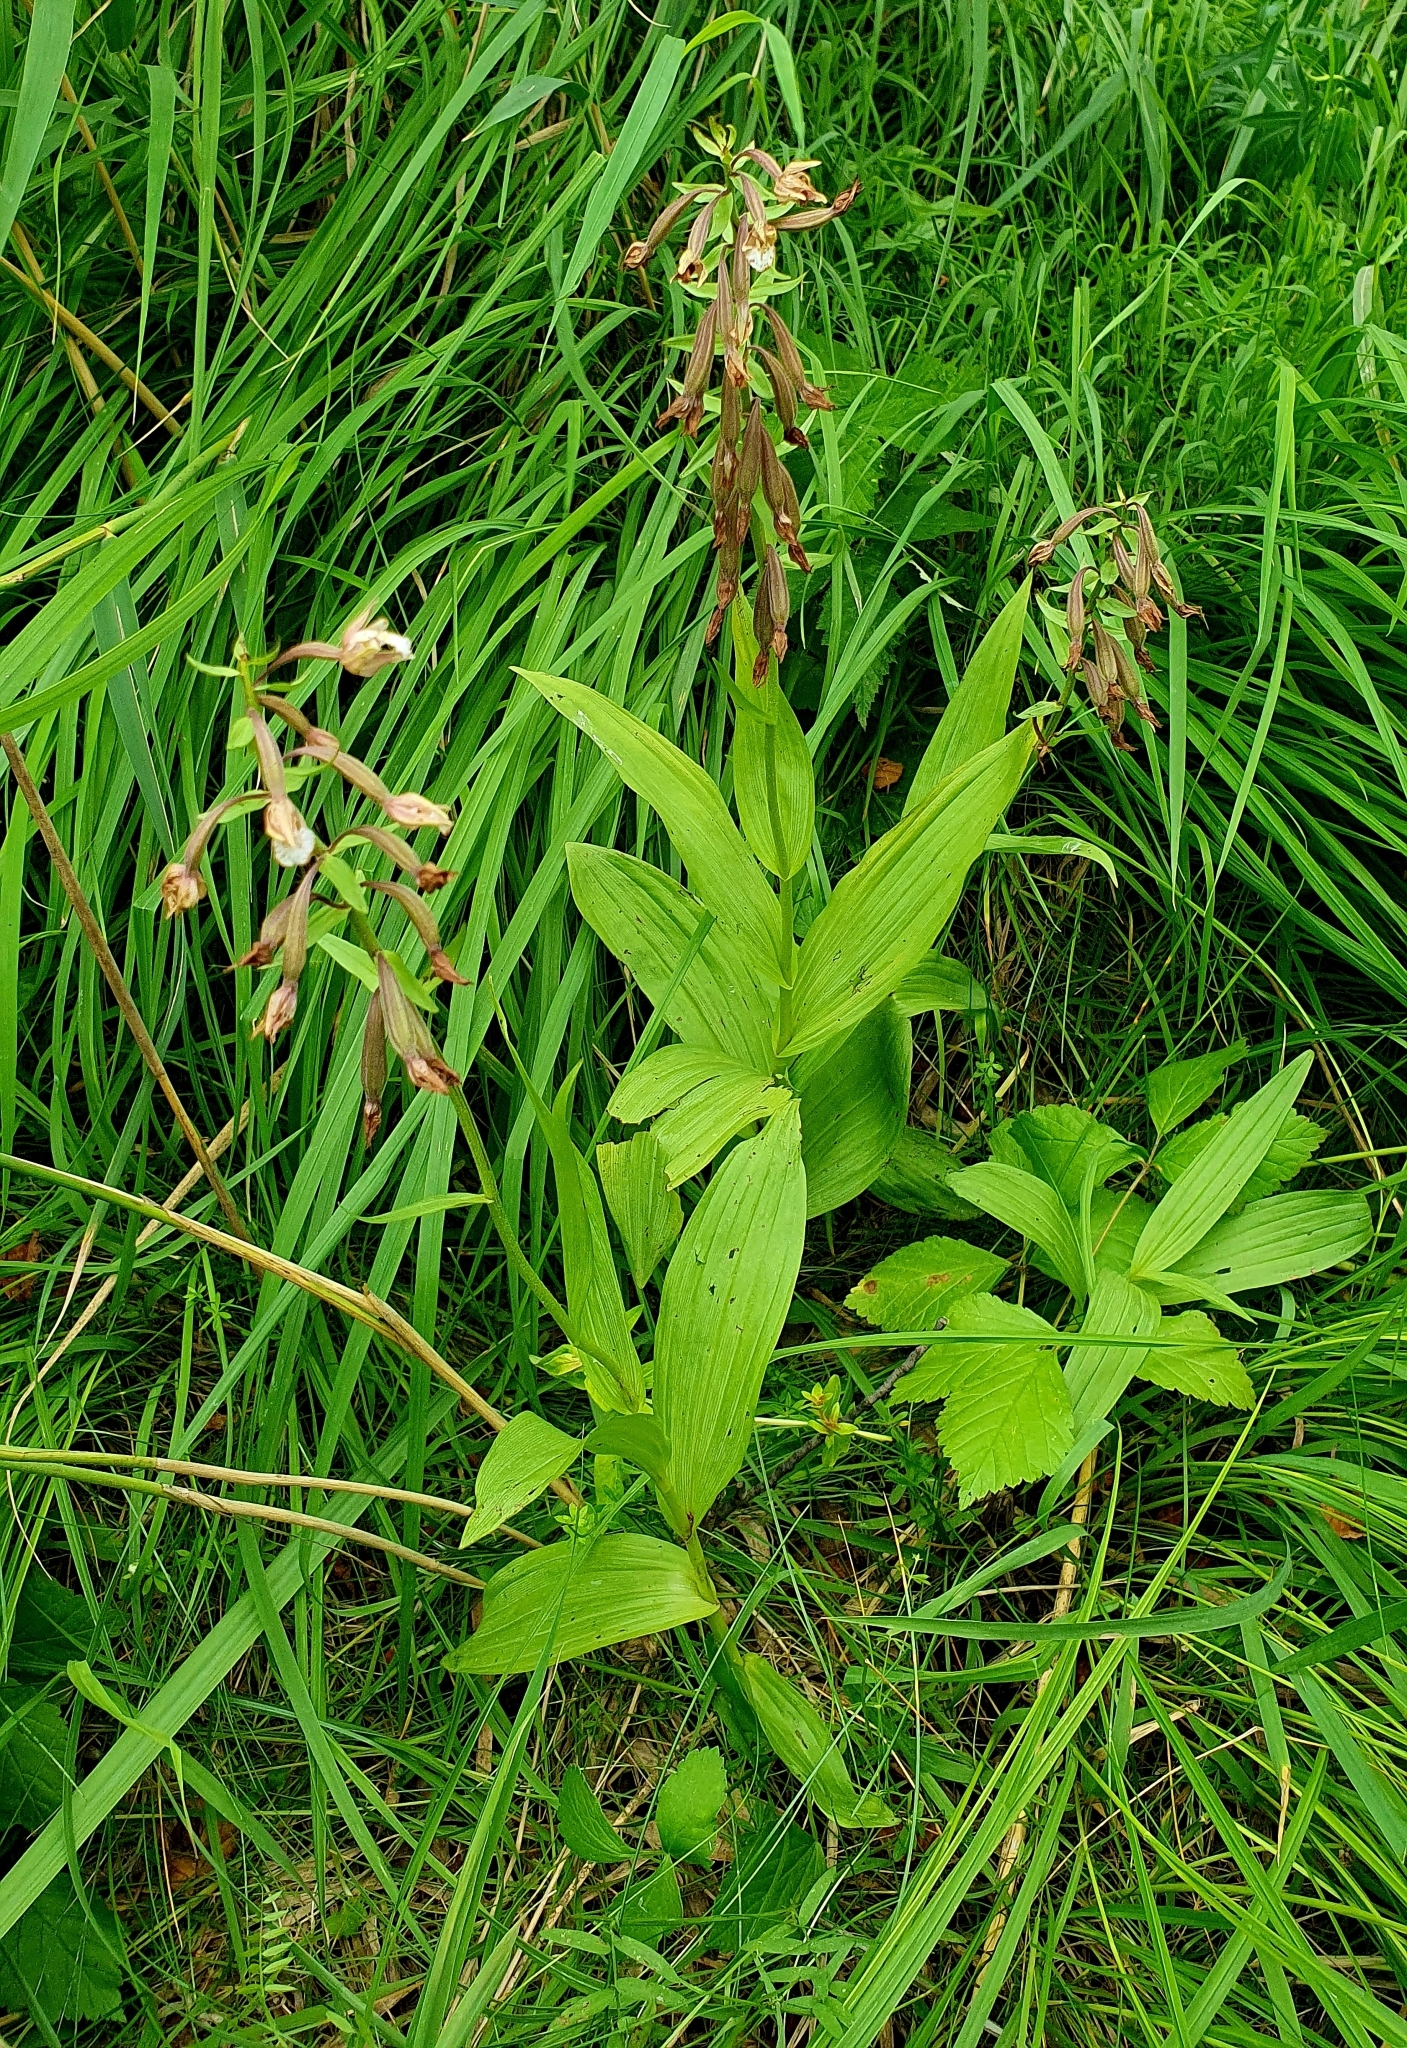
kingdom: Plantae
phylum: Tracheophyta
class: Liliopsida
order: Asparagales
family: Orchidaceae
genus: Epipactis
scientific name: Epipactis palustris
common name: Marsh helleborine
